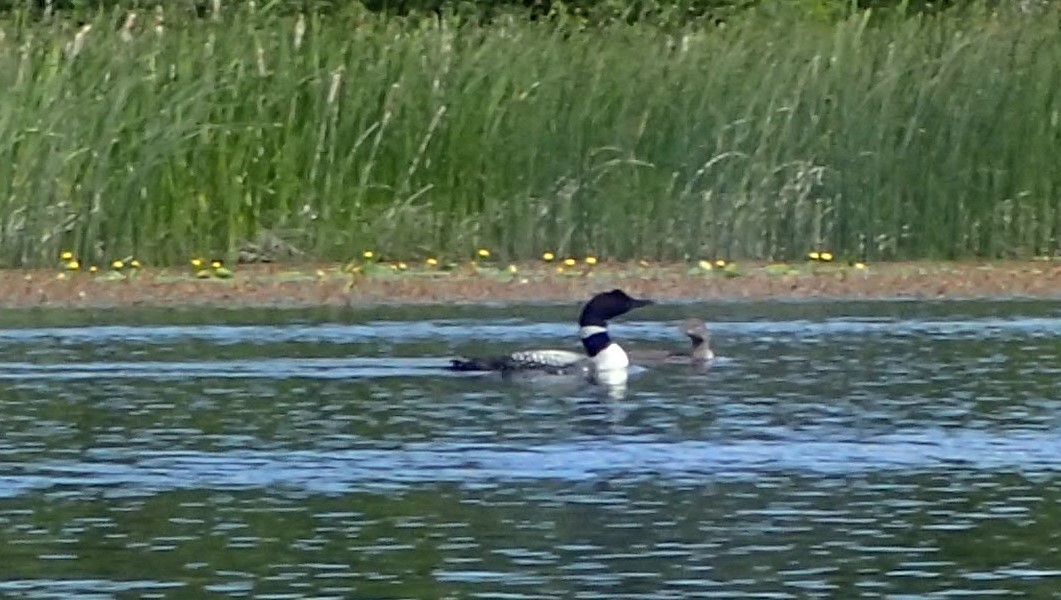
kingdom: Animalia
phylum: Chordata
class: Aves
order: Gaviiformes
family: Gaviidae
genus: Gavia
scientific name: Gavia immer
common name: Common loon
